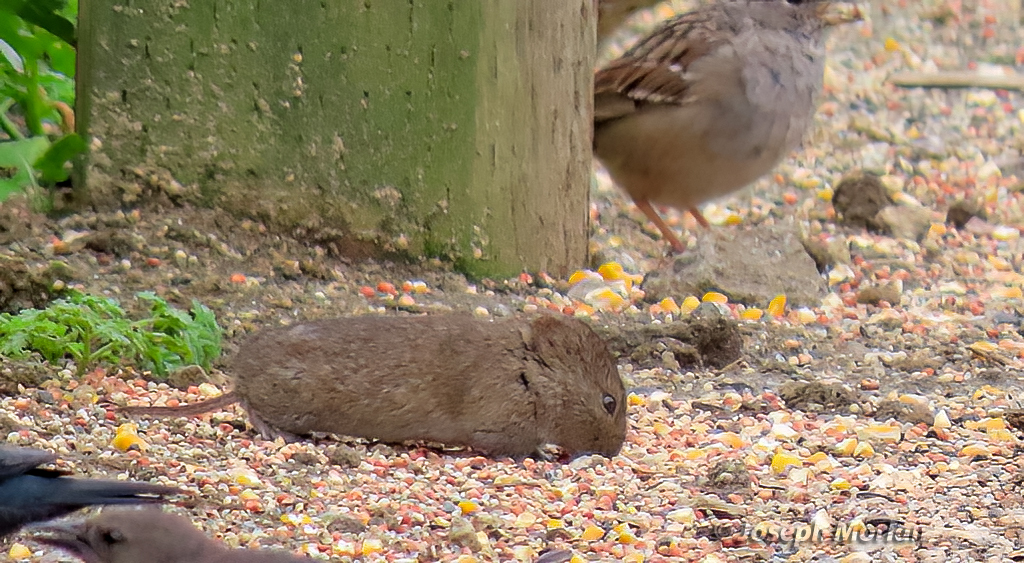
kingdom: Animalia
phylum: Chordata
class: Mammalia
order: Rodentia
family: Cricetidae
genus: Microtus
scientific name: Microtus californicus
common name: California vole
